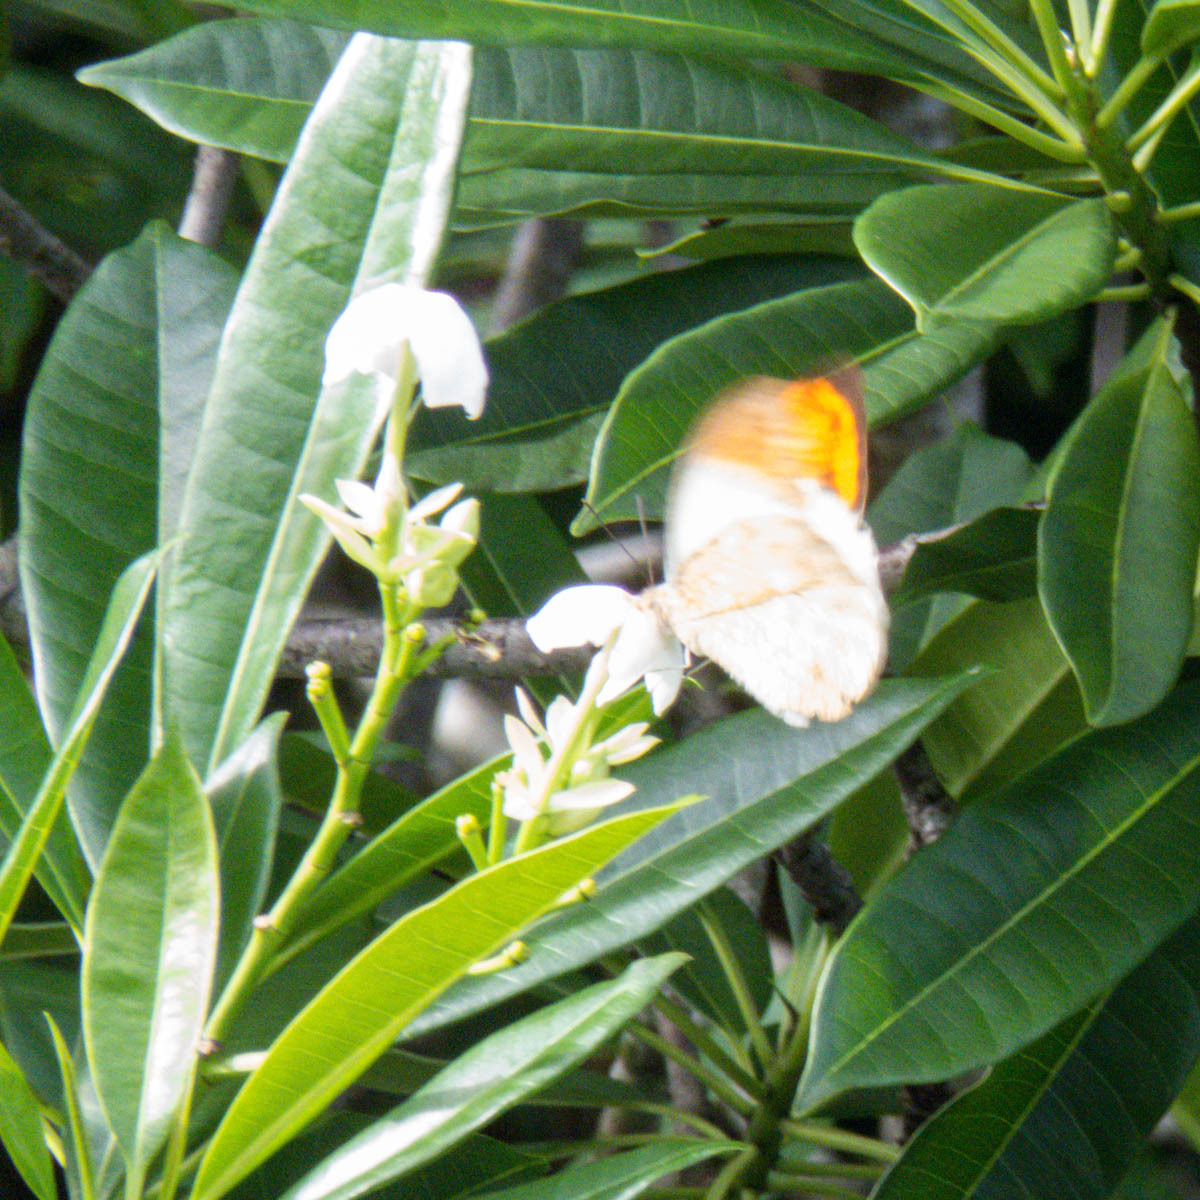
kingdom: Animalia
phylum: Arthropoda
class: Insecta
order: Lepidoptera
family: Pieridae
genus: Hebomoia
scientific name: Hebomoia glaucippe
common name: Great orange tip
